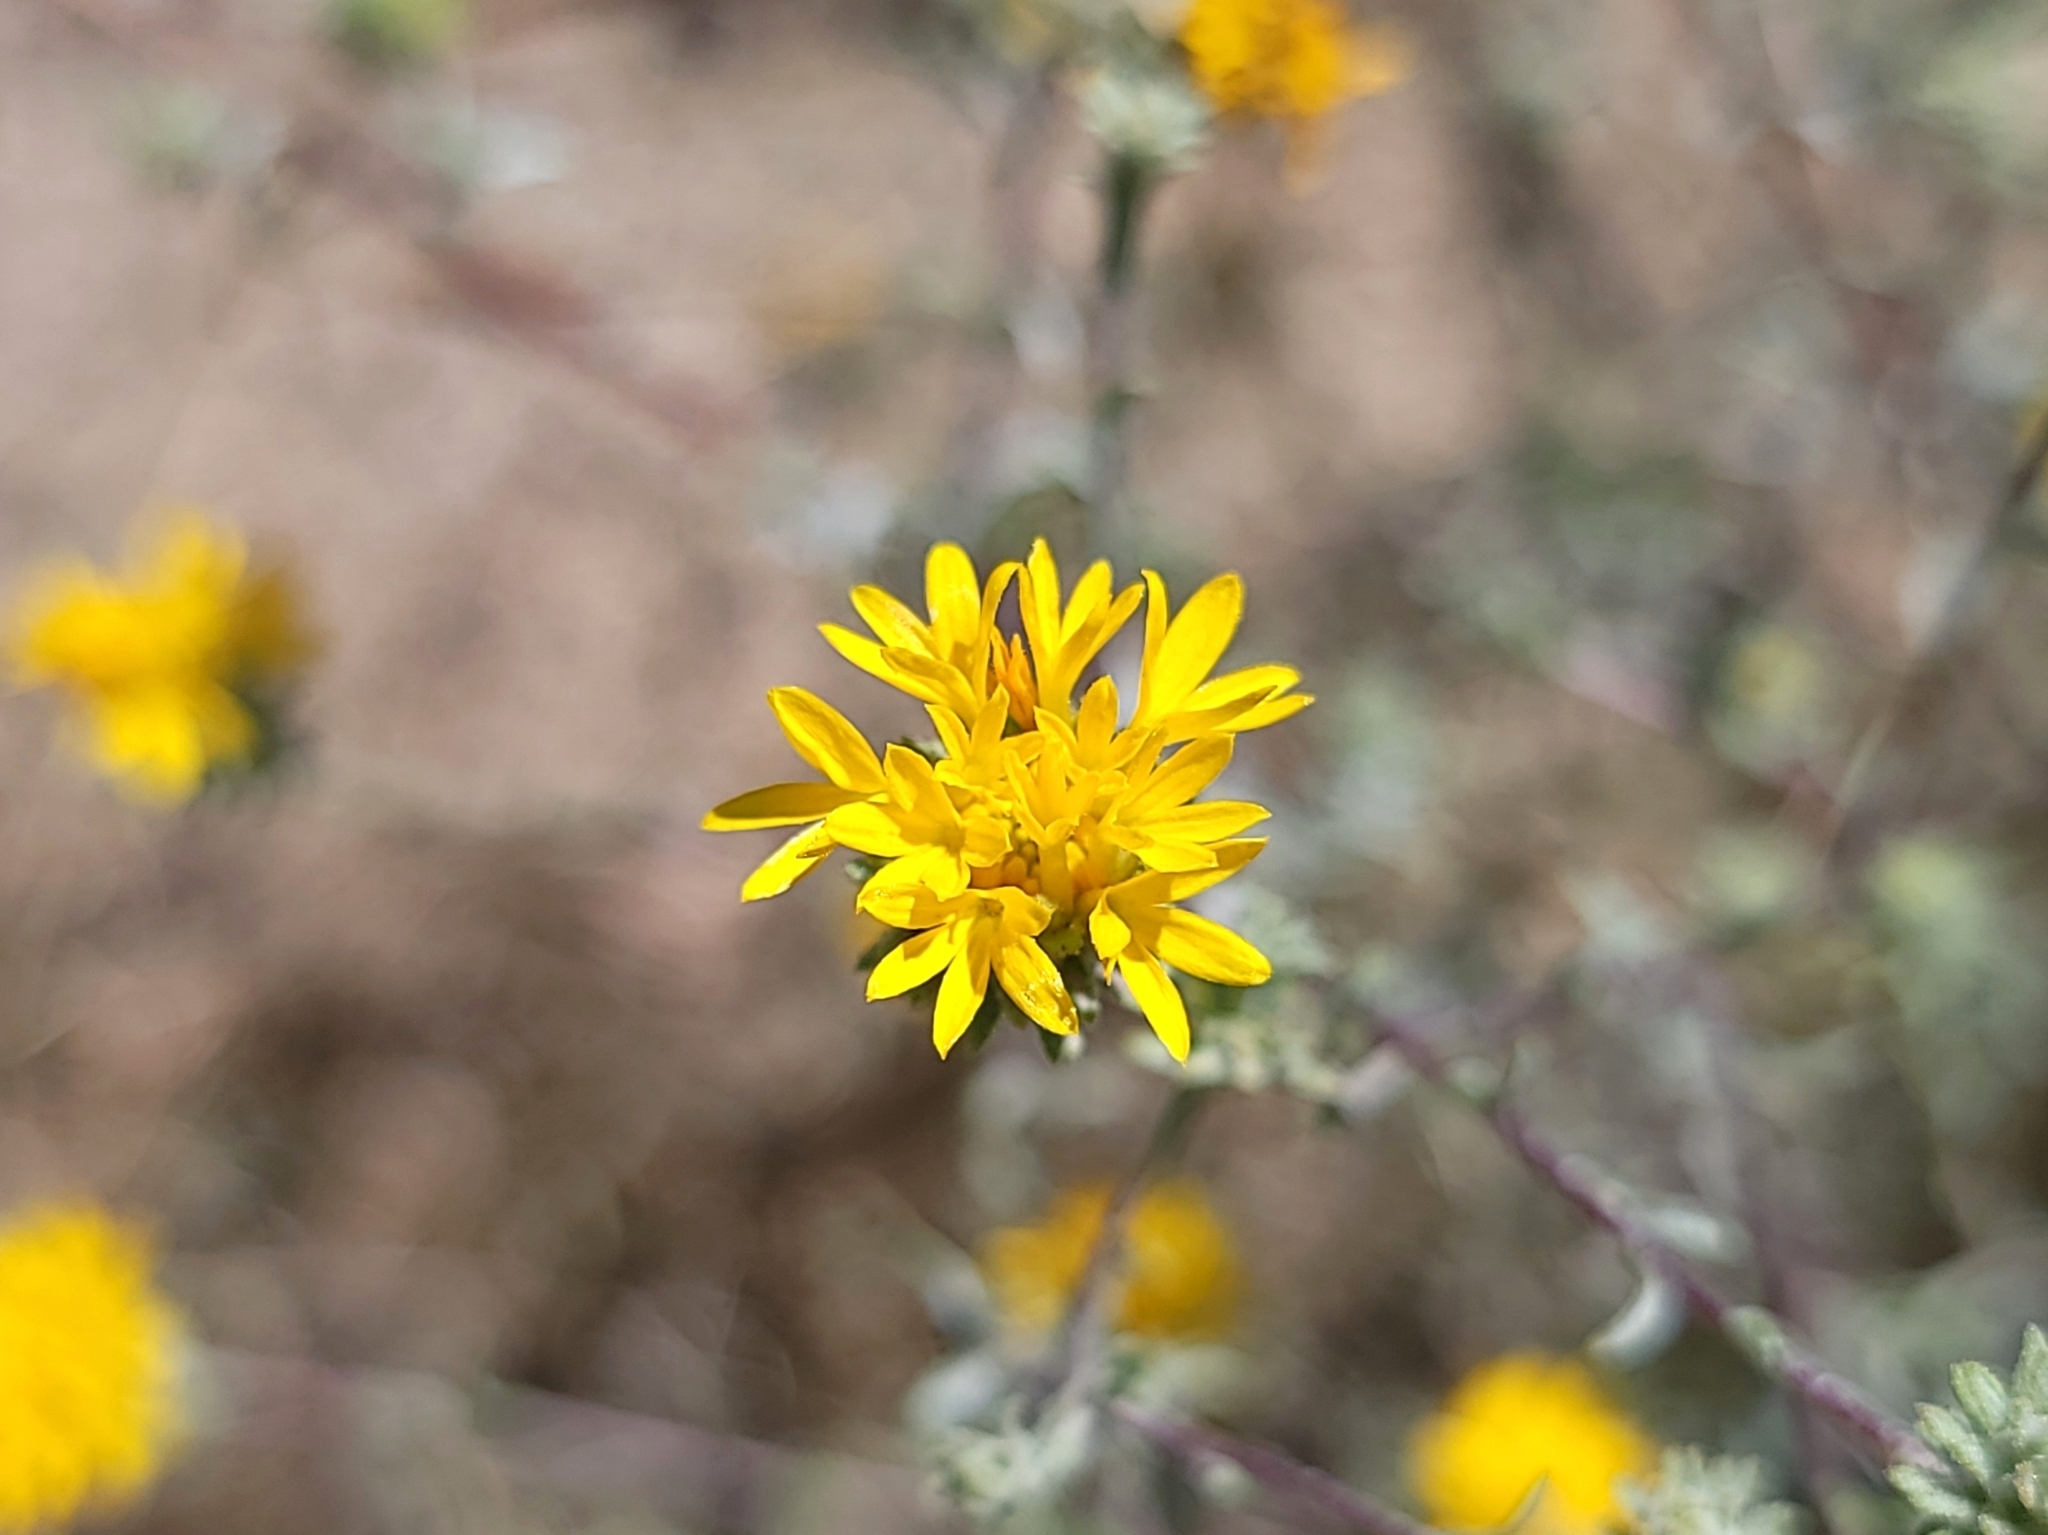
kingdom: Plantae
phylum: Tracheophyta
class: Magnoliopsida
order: Asterales
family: Asteraceae
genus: Lessingia
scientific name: Lessingia glandulifera
